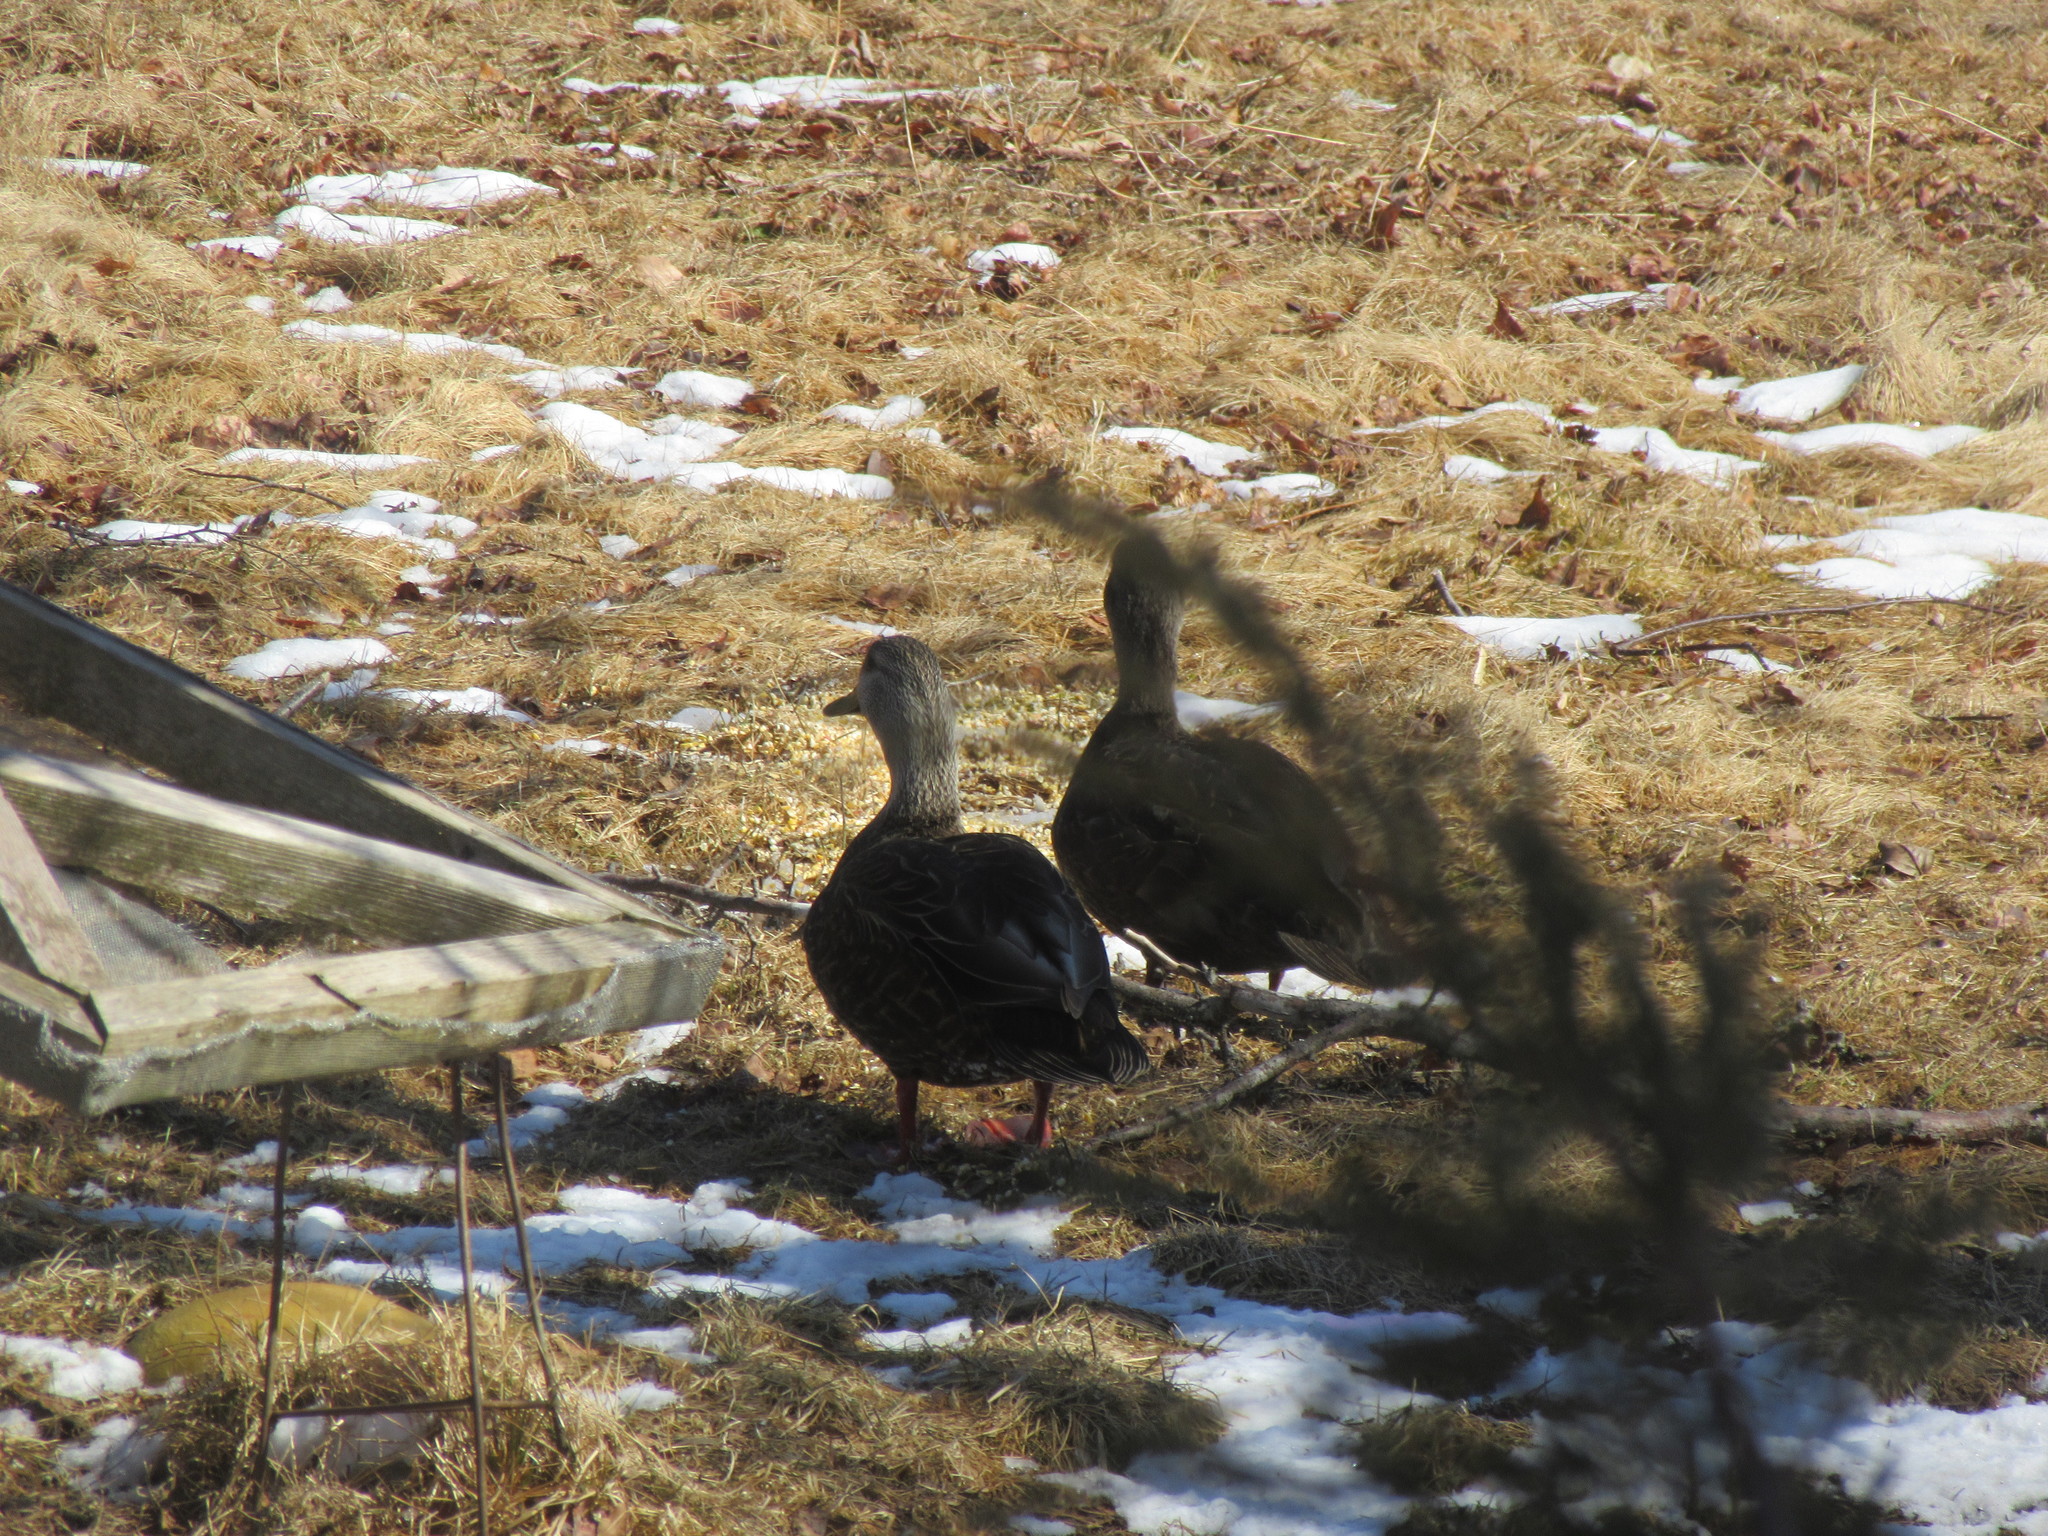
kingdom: Animalia
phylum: Chordata
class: Aves
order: Anseriformes
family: Anatidae
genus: Anas
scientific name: Anas rubripes
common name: American black duck
